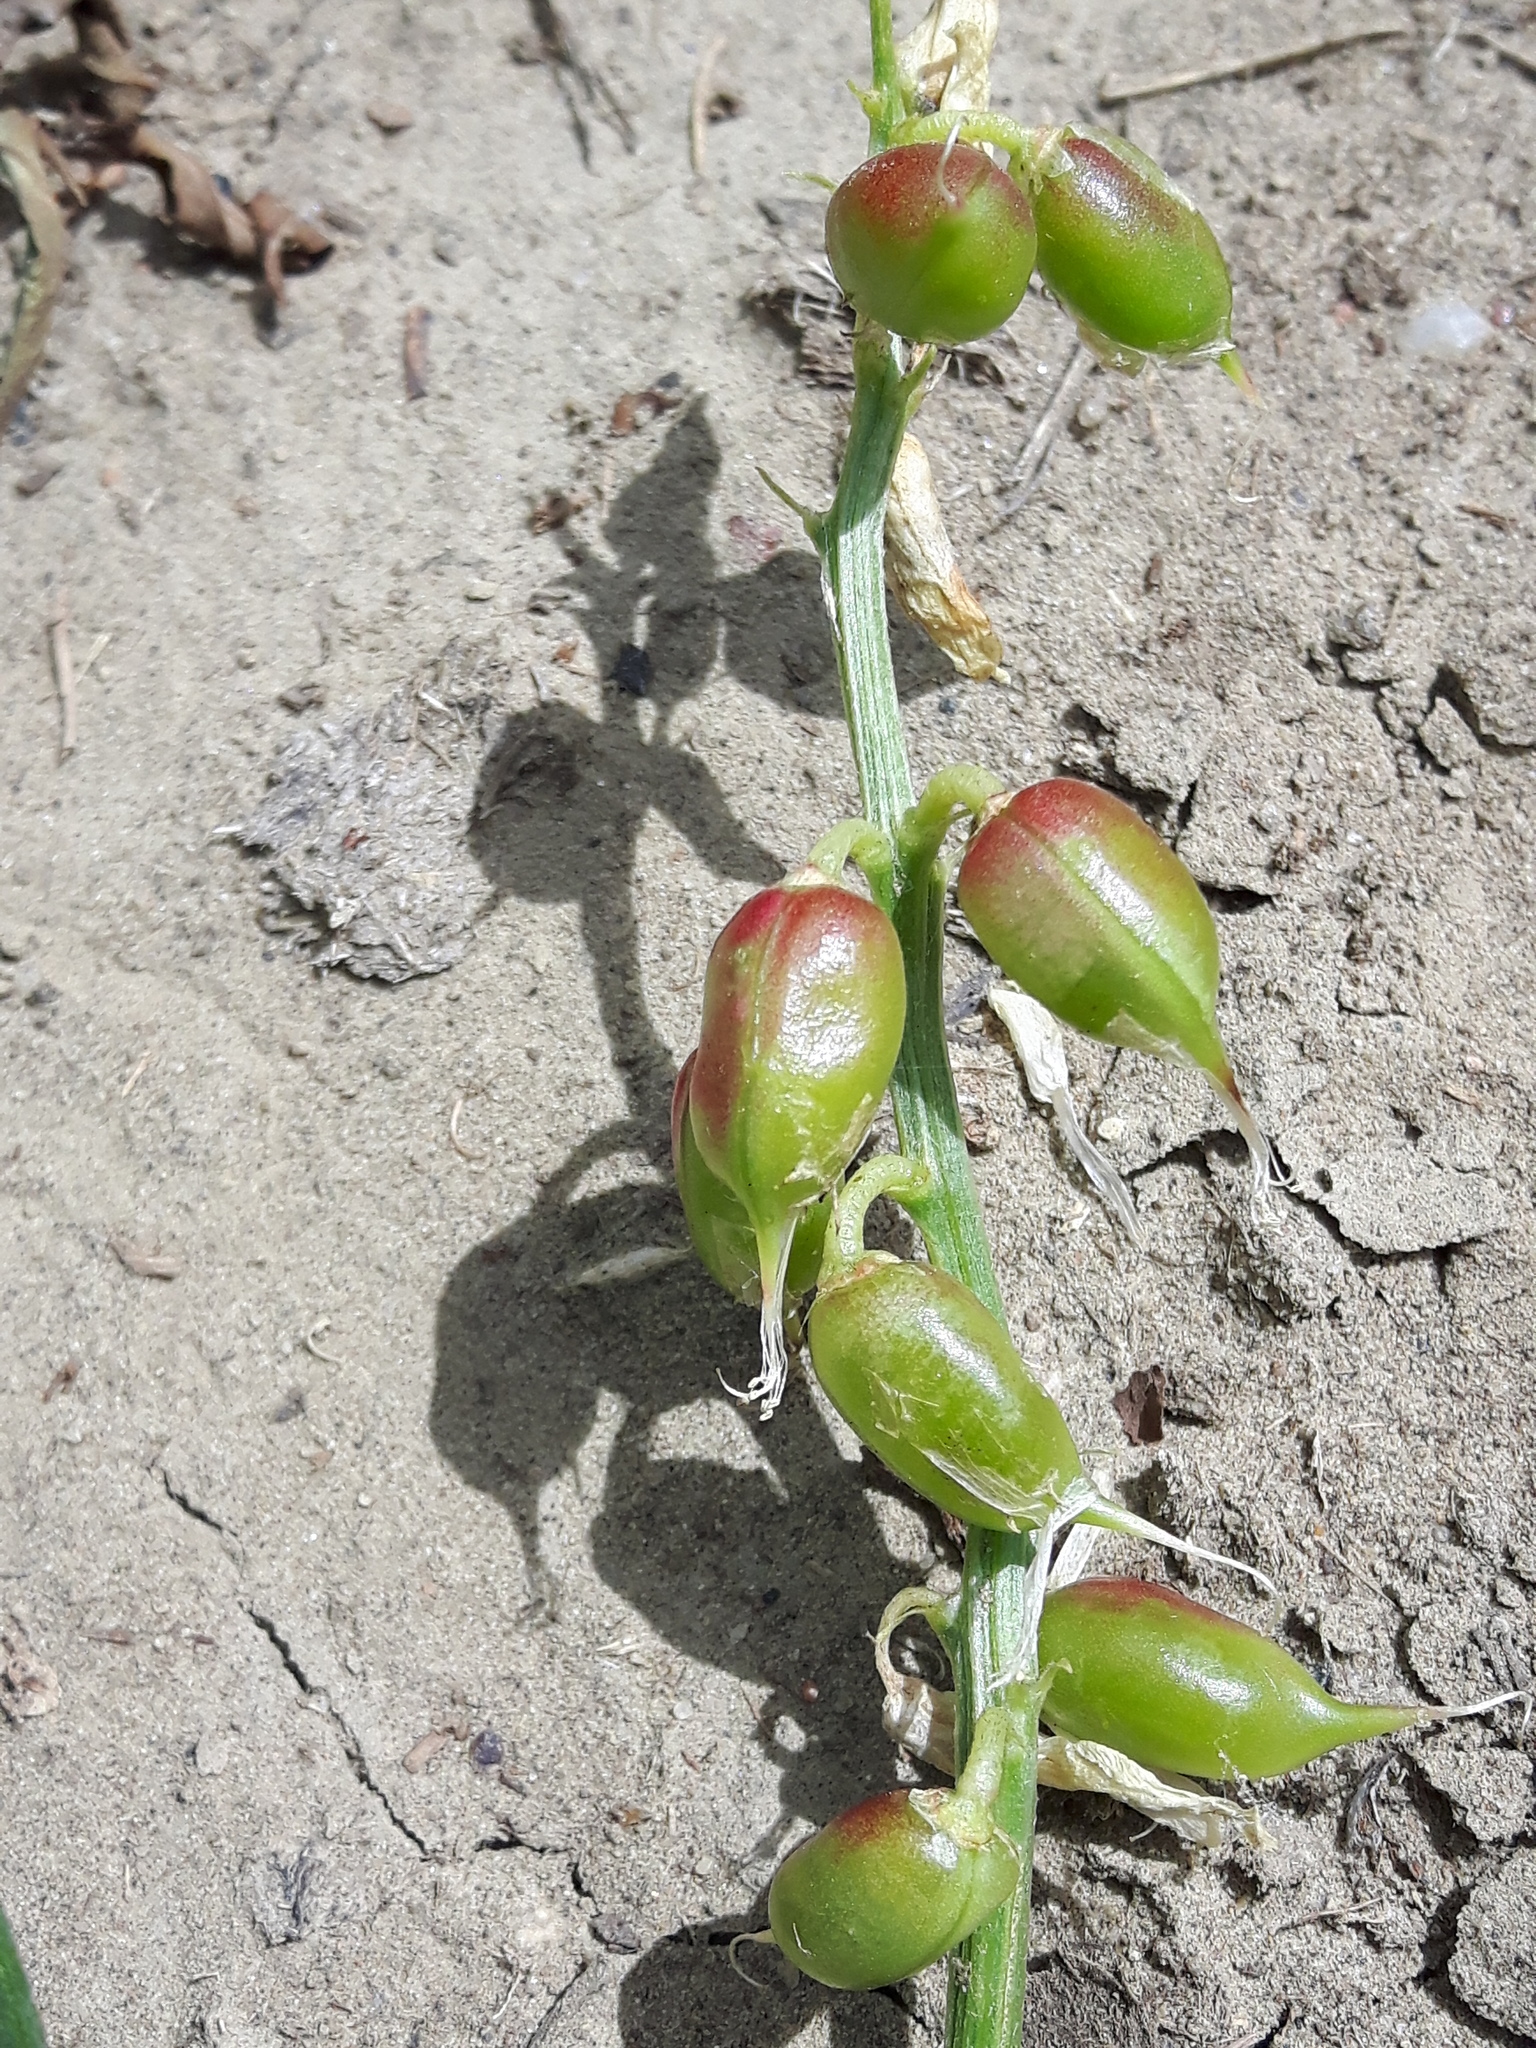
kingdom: Plantae
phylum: Tracheophyta
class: Magnoliopsida
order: Fabales
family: Fabaceae
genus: Astragalus
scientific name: Astragalus pectinatus
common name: Tine-leaf milk-vetch
